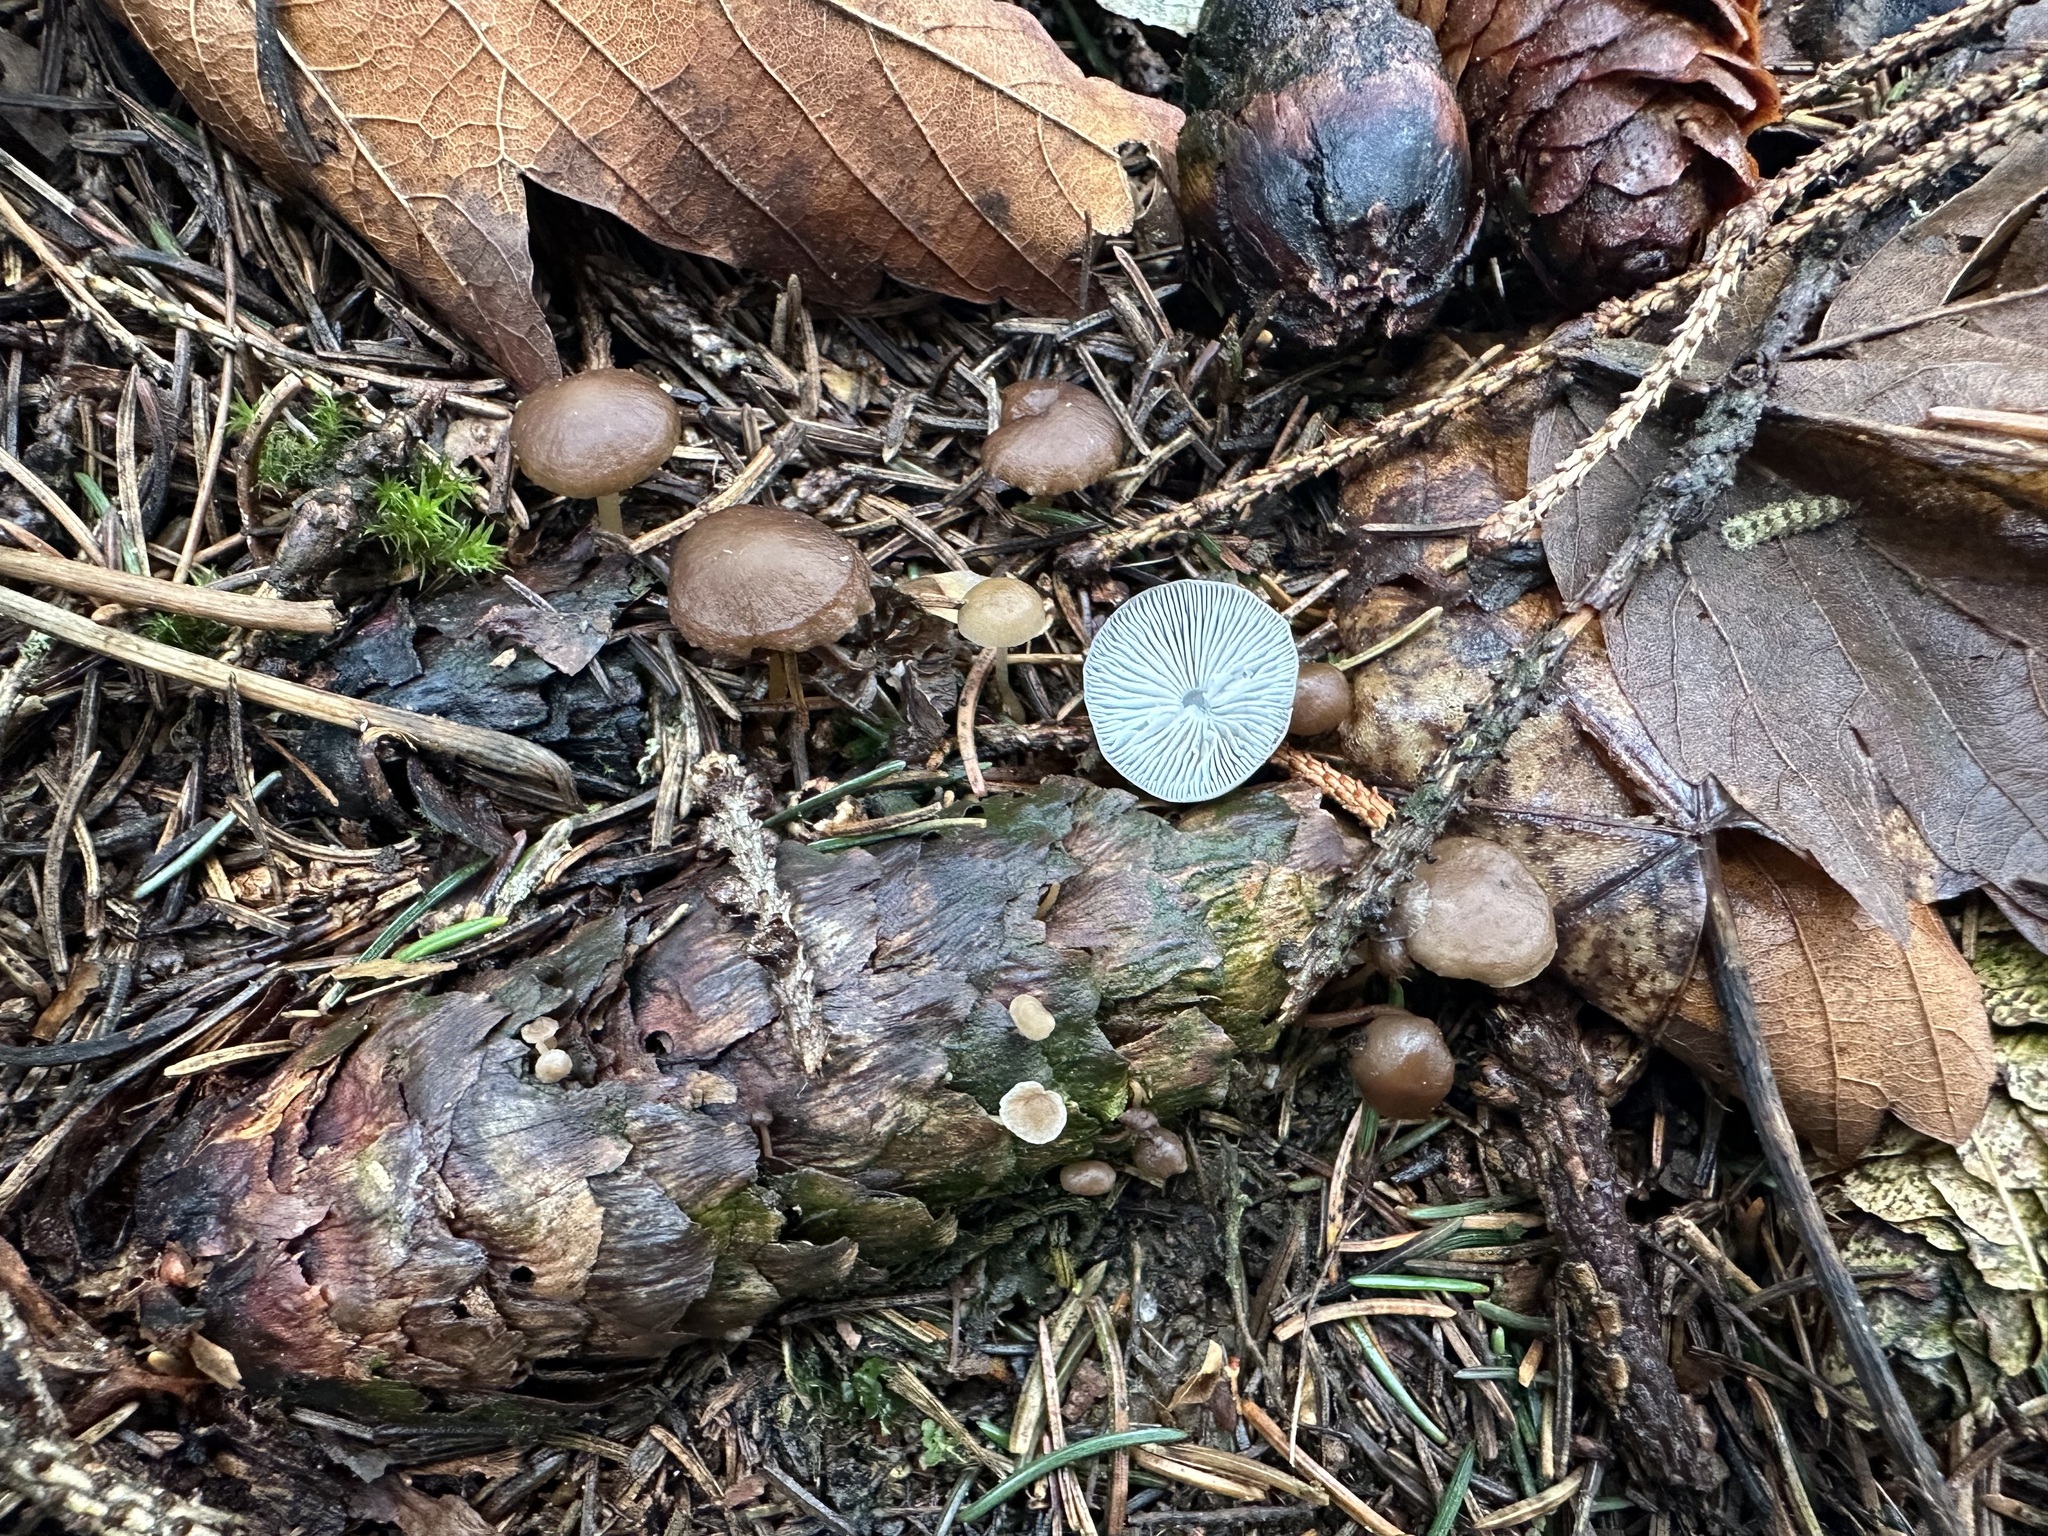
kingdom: Fungi
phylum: Basidiomycota
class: Agaricomycetes
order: Agaricales
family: Physalacriaceae
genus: Strobilurus
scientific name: Strobilurus esculentus
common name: Sprucecone cap
